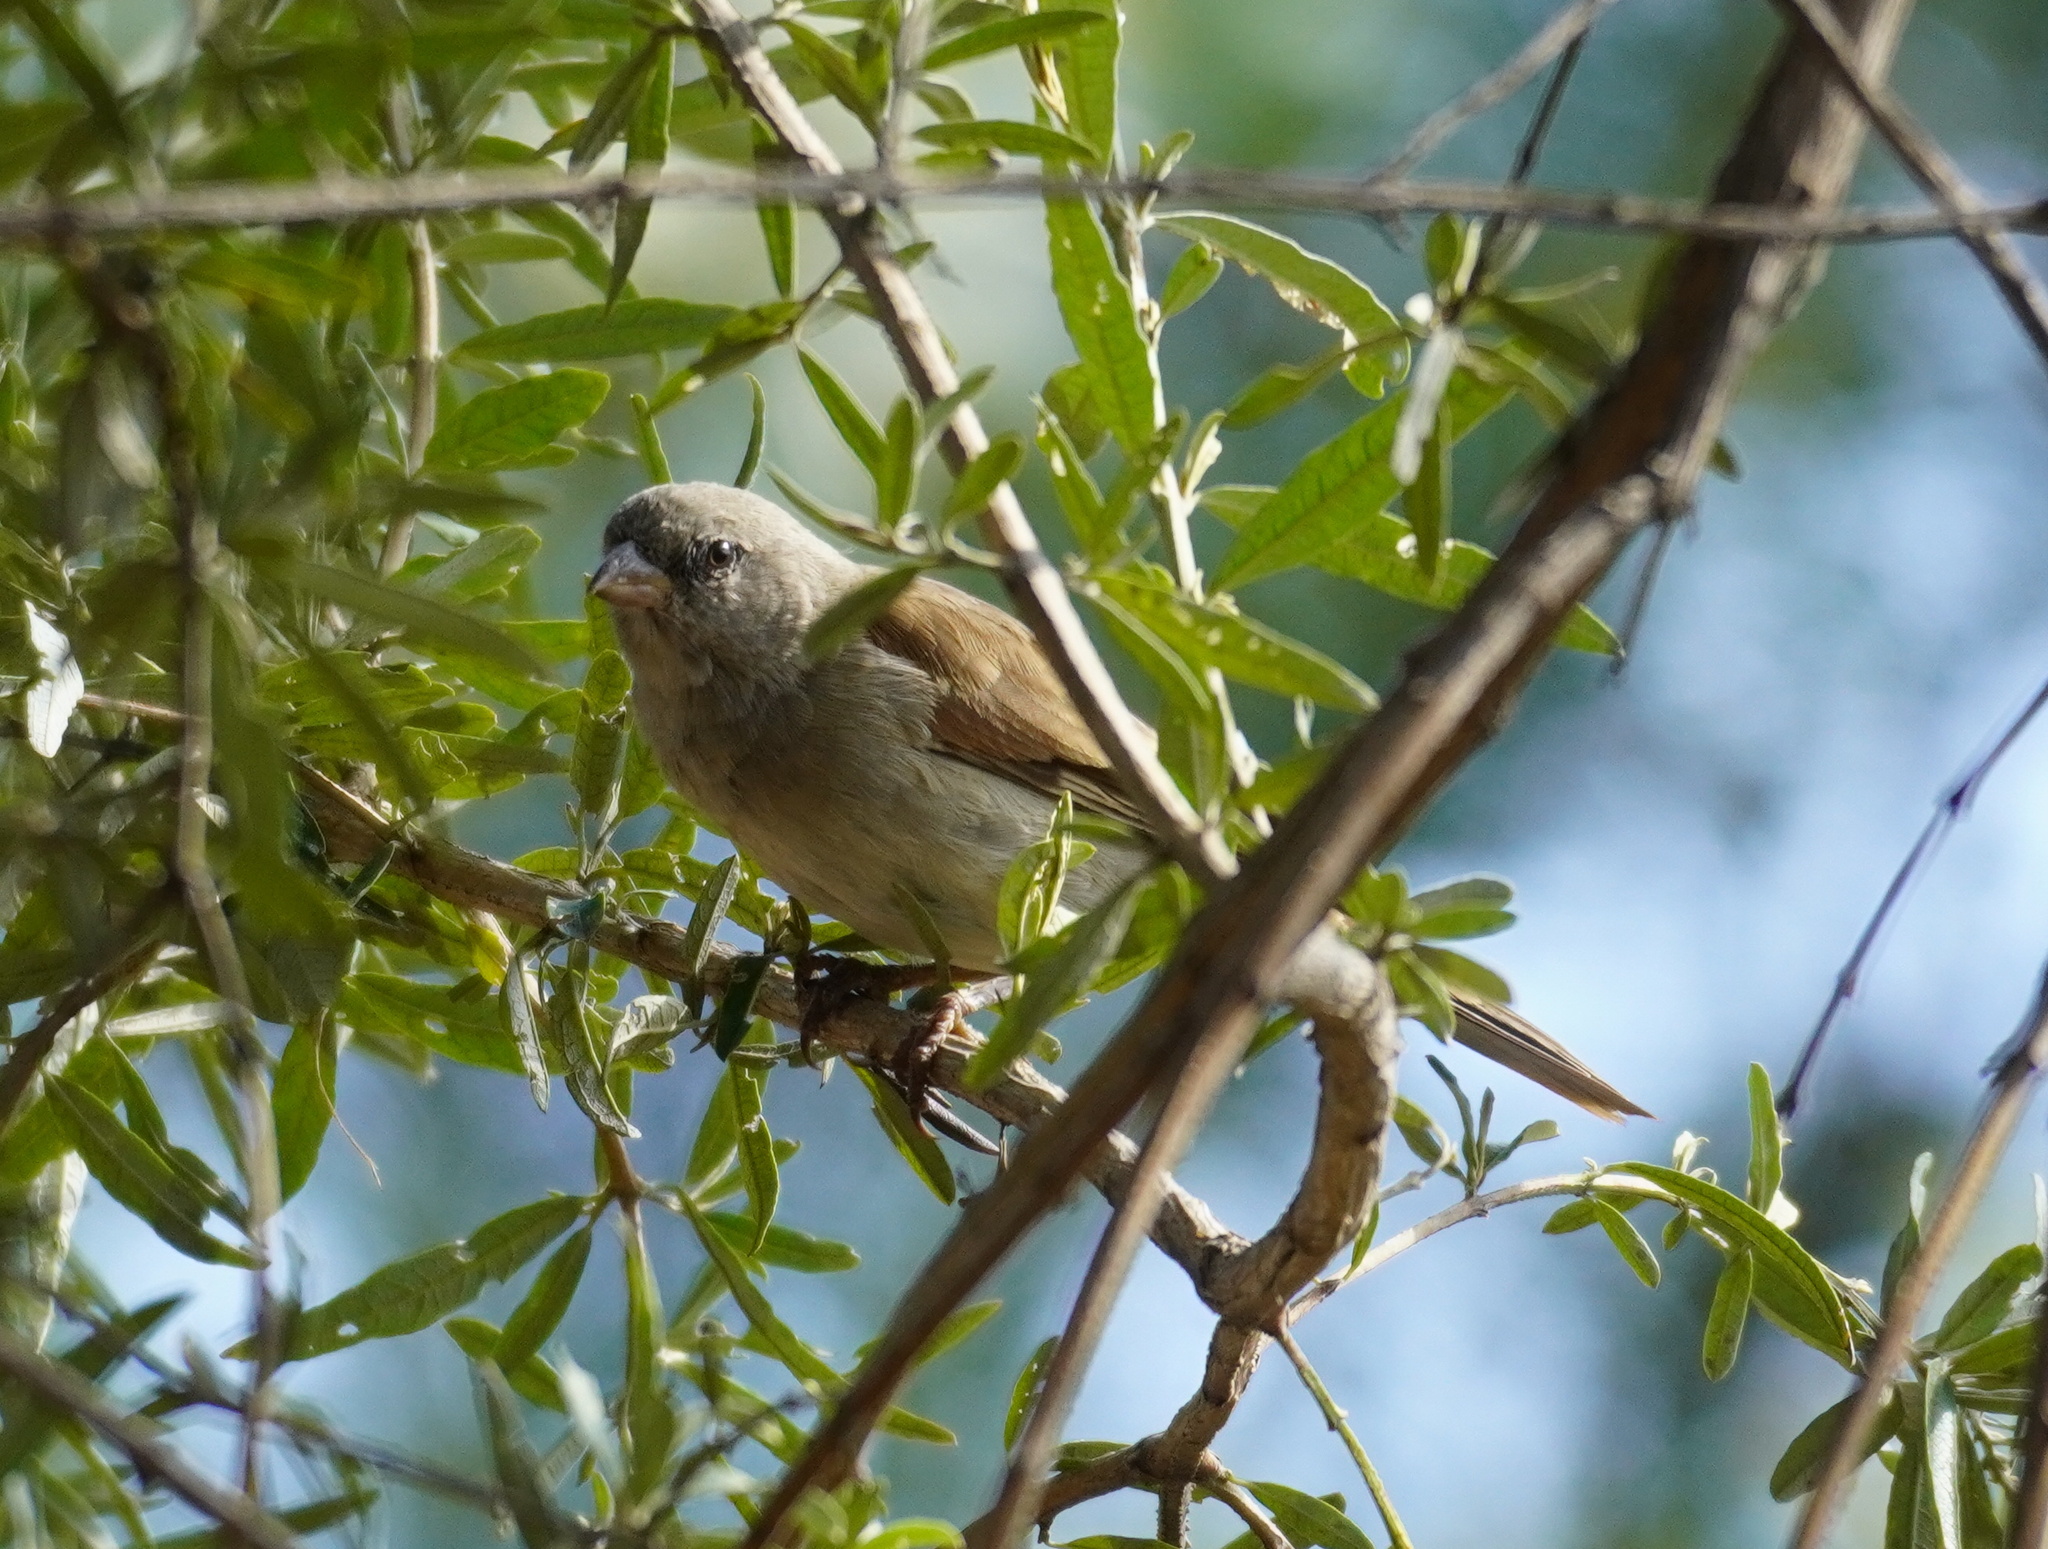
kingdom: Animalia
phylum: Chordata
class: Aves
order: Passeriformes
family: Passeridae
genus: Passer
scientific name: Passer diffusus
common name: Southern grey-headed sparrow
